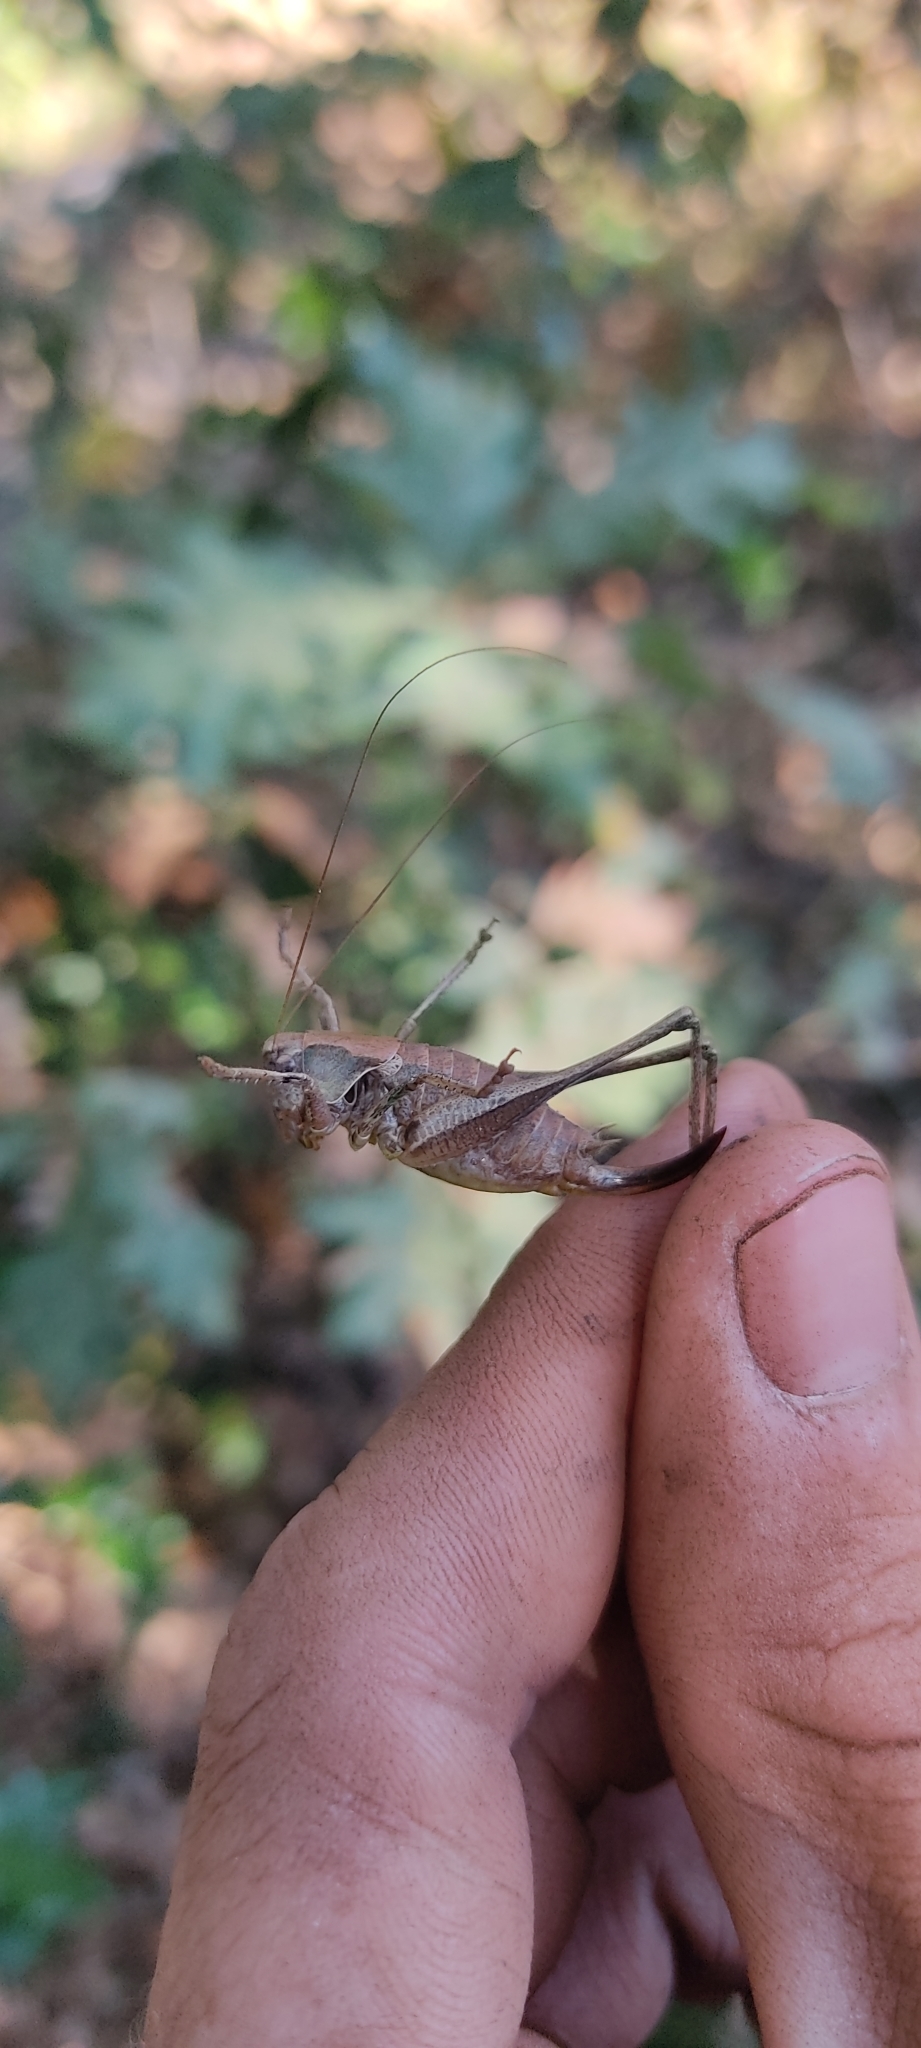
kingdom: Animalia
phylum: Arthropoda
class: Insecta
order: Orthoptera
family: Tettigoniidae
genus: Pholidoptera
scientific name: Pholidoptera griseoaptera
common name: Dark bush-cricket
